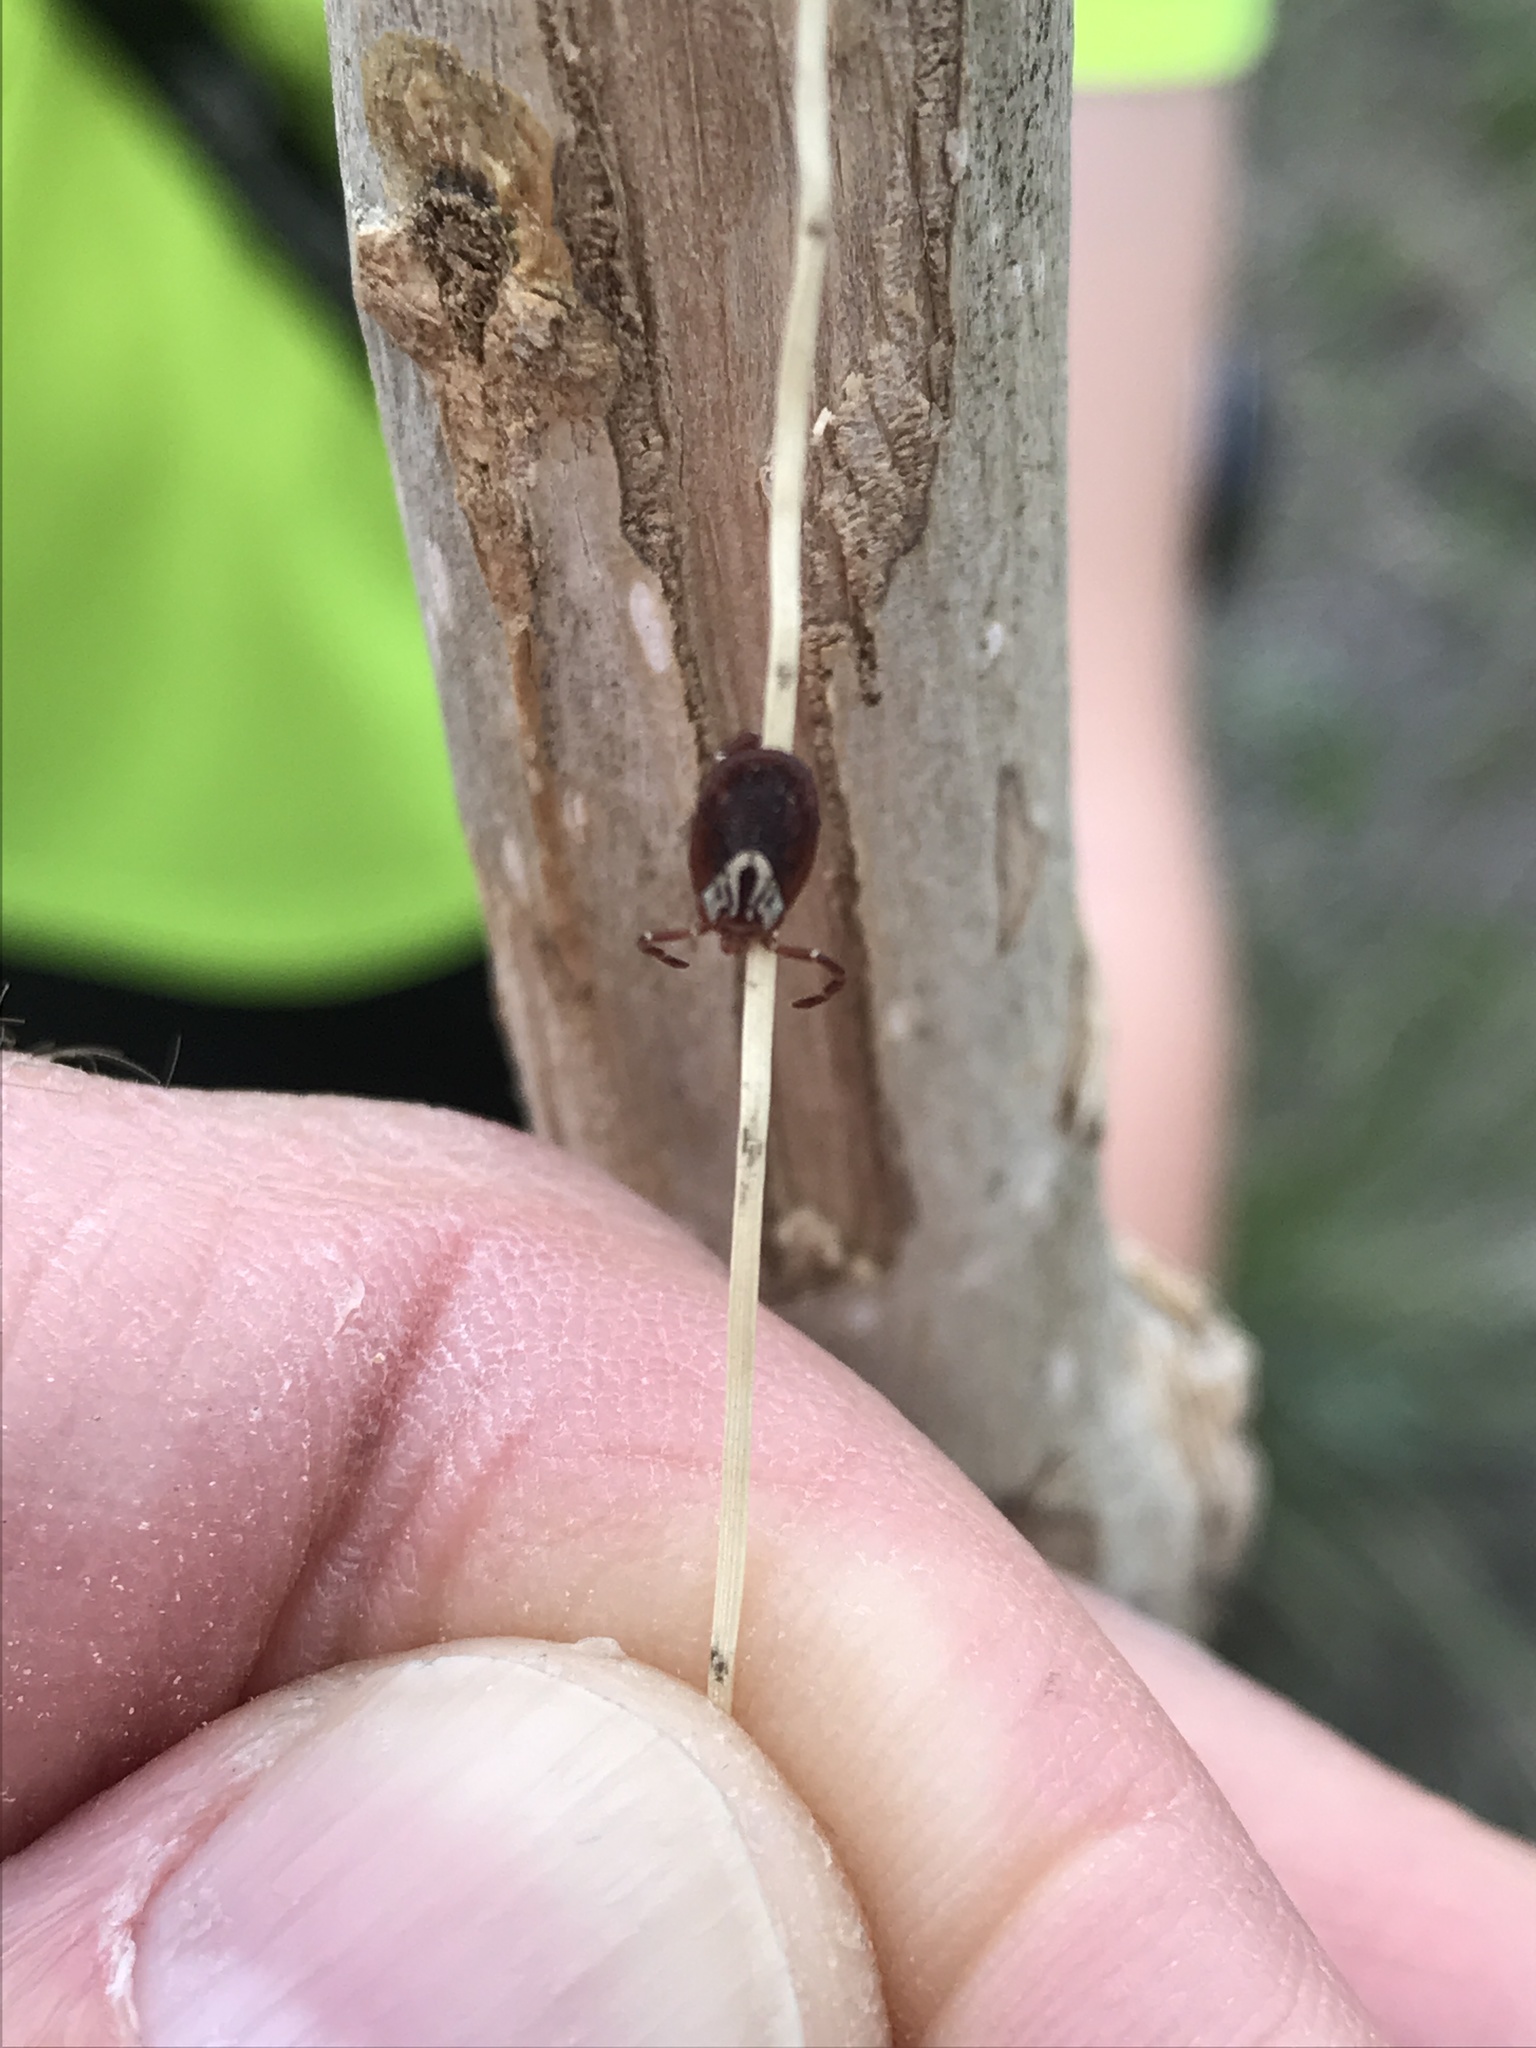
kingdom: Animalia
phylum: Arthropoda
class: Arachnida
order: Ixodida
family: Ixodidae
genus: Amblyomma
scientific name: Amblyomma maculatum
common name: Gulf coast tick
